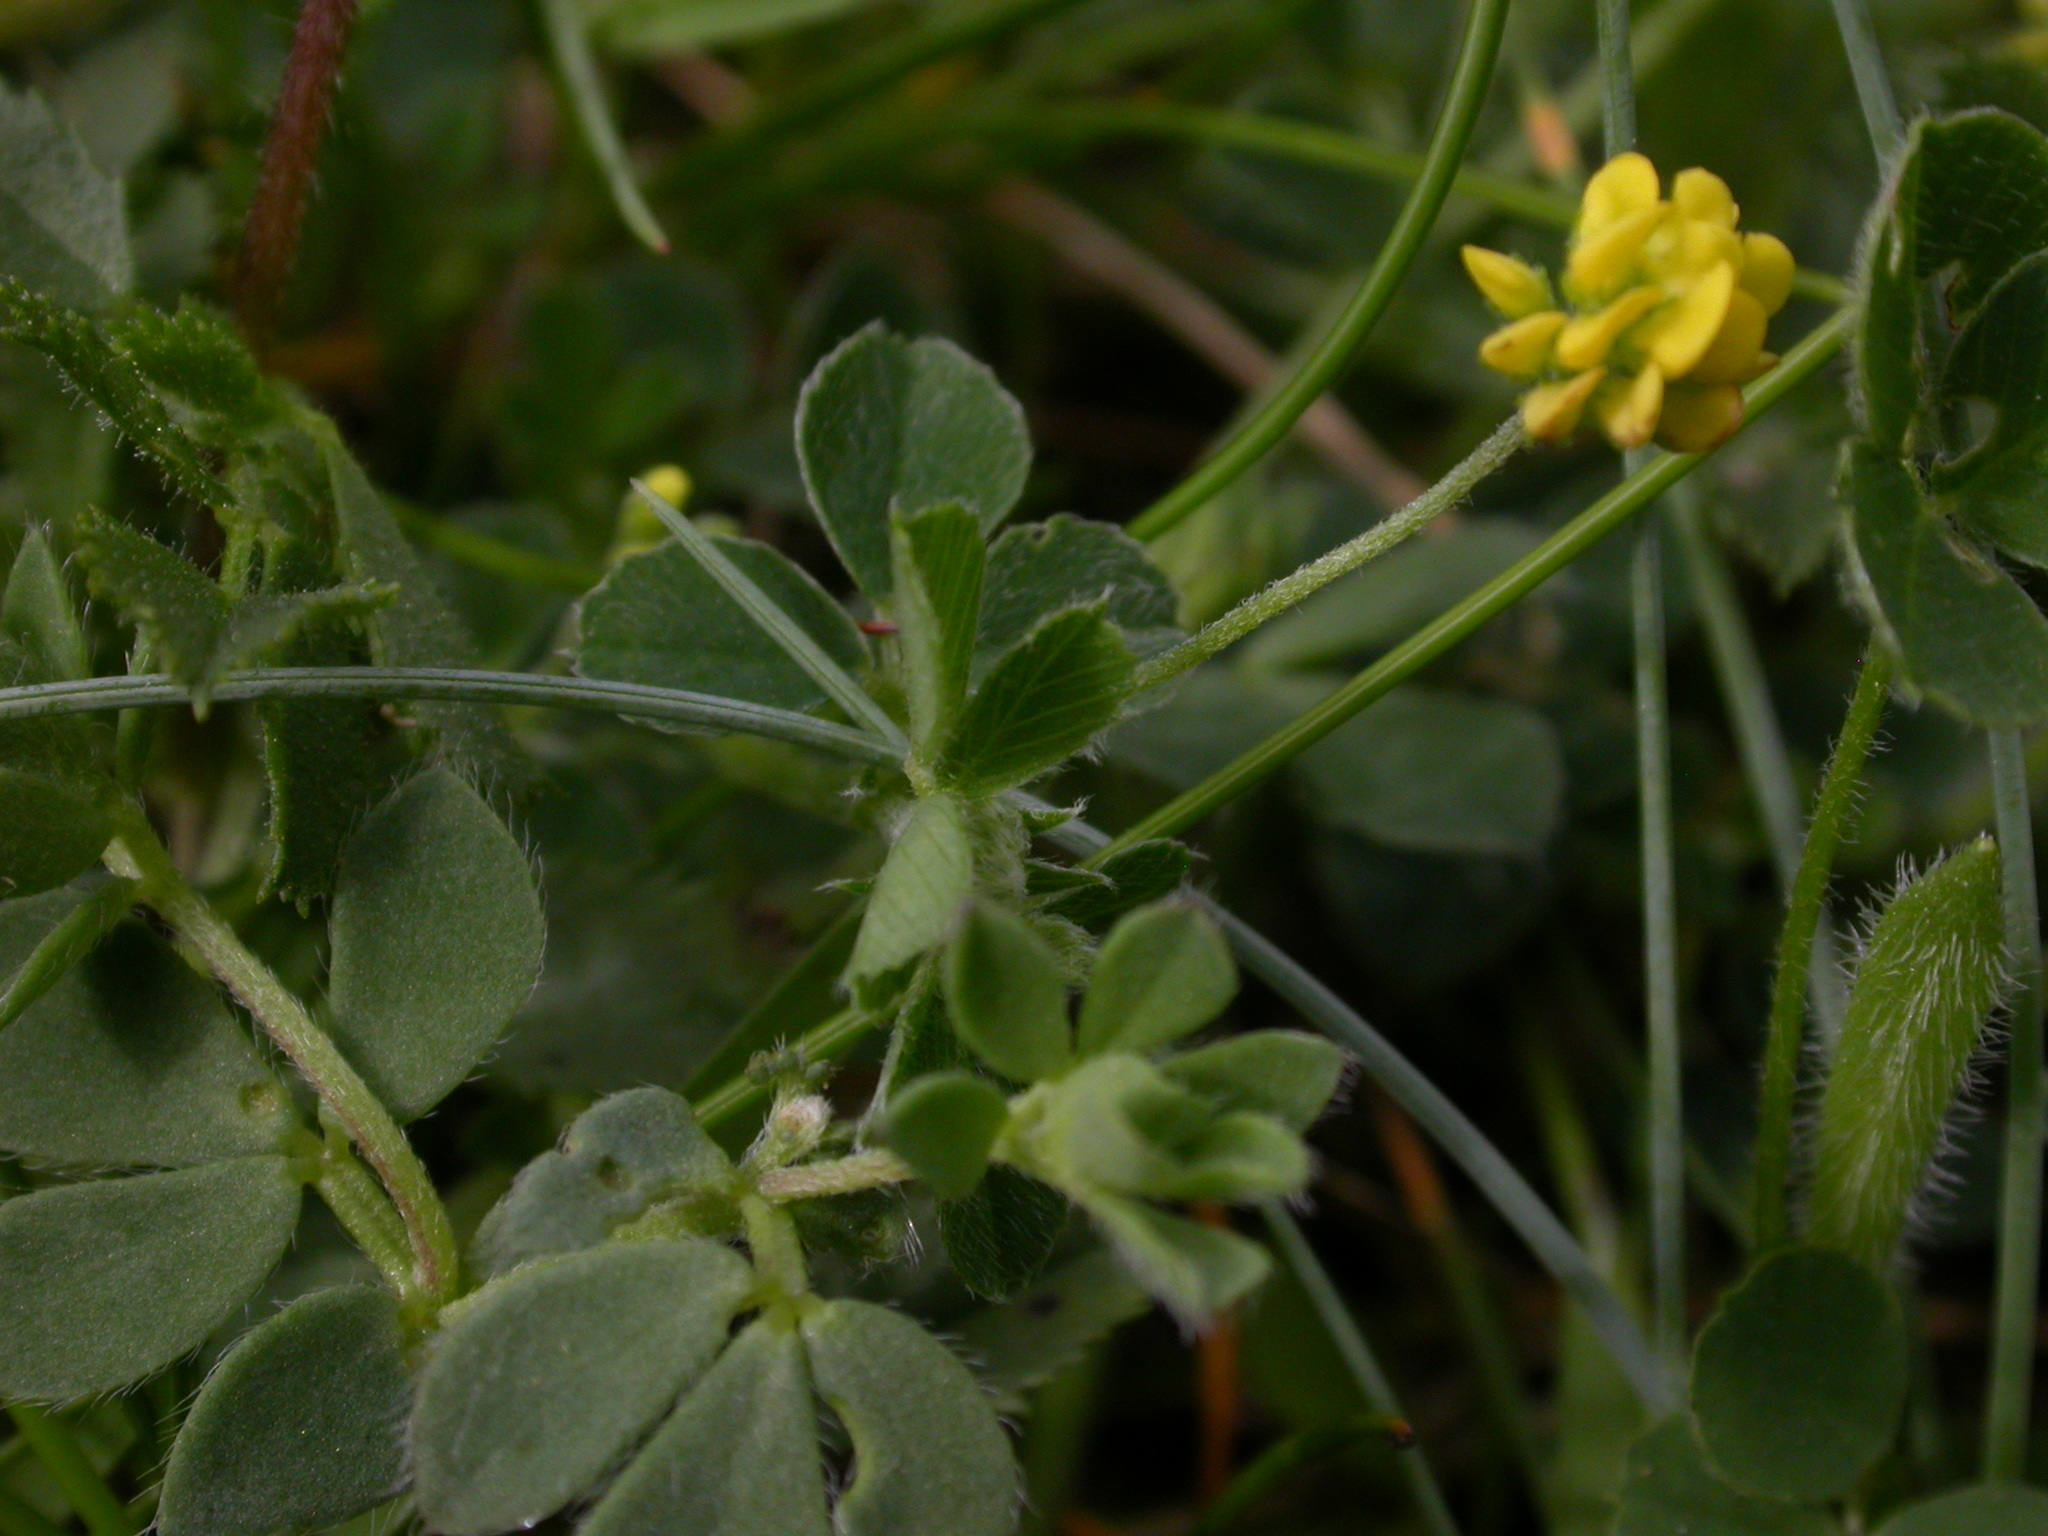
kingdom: Plantae
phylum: Tracheophyta
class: Magnoliopsida
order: Fabales
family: Fabaceae
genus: Medicago
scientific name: Medicago lupulina
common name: Black medick
